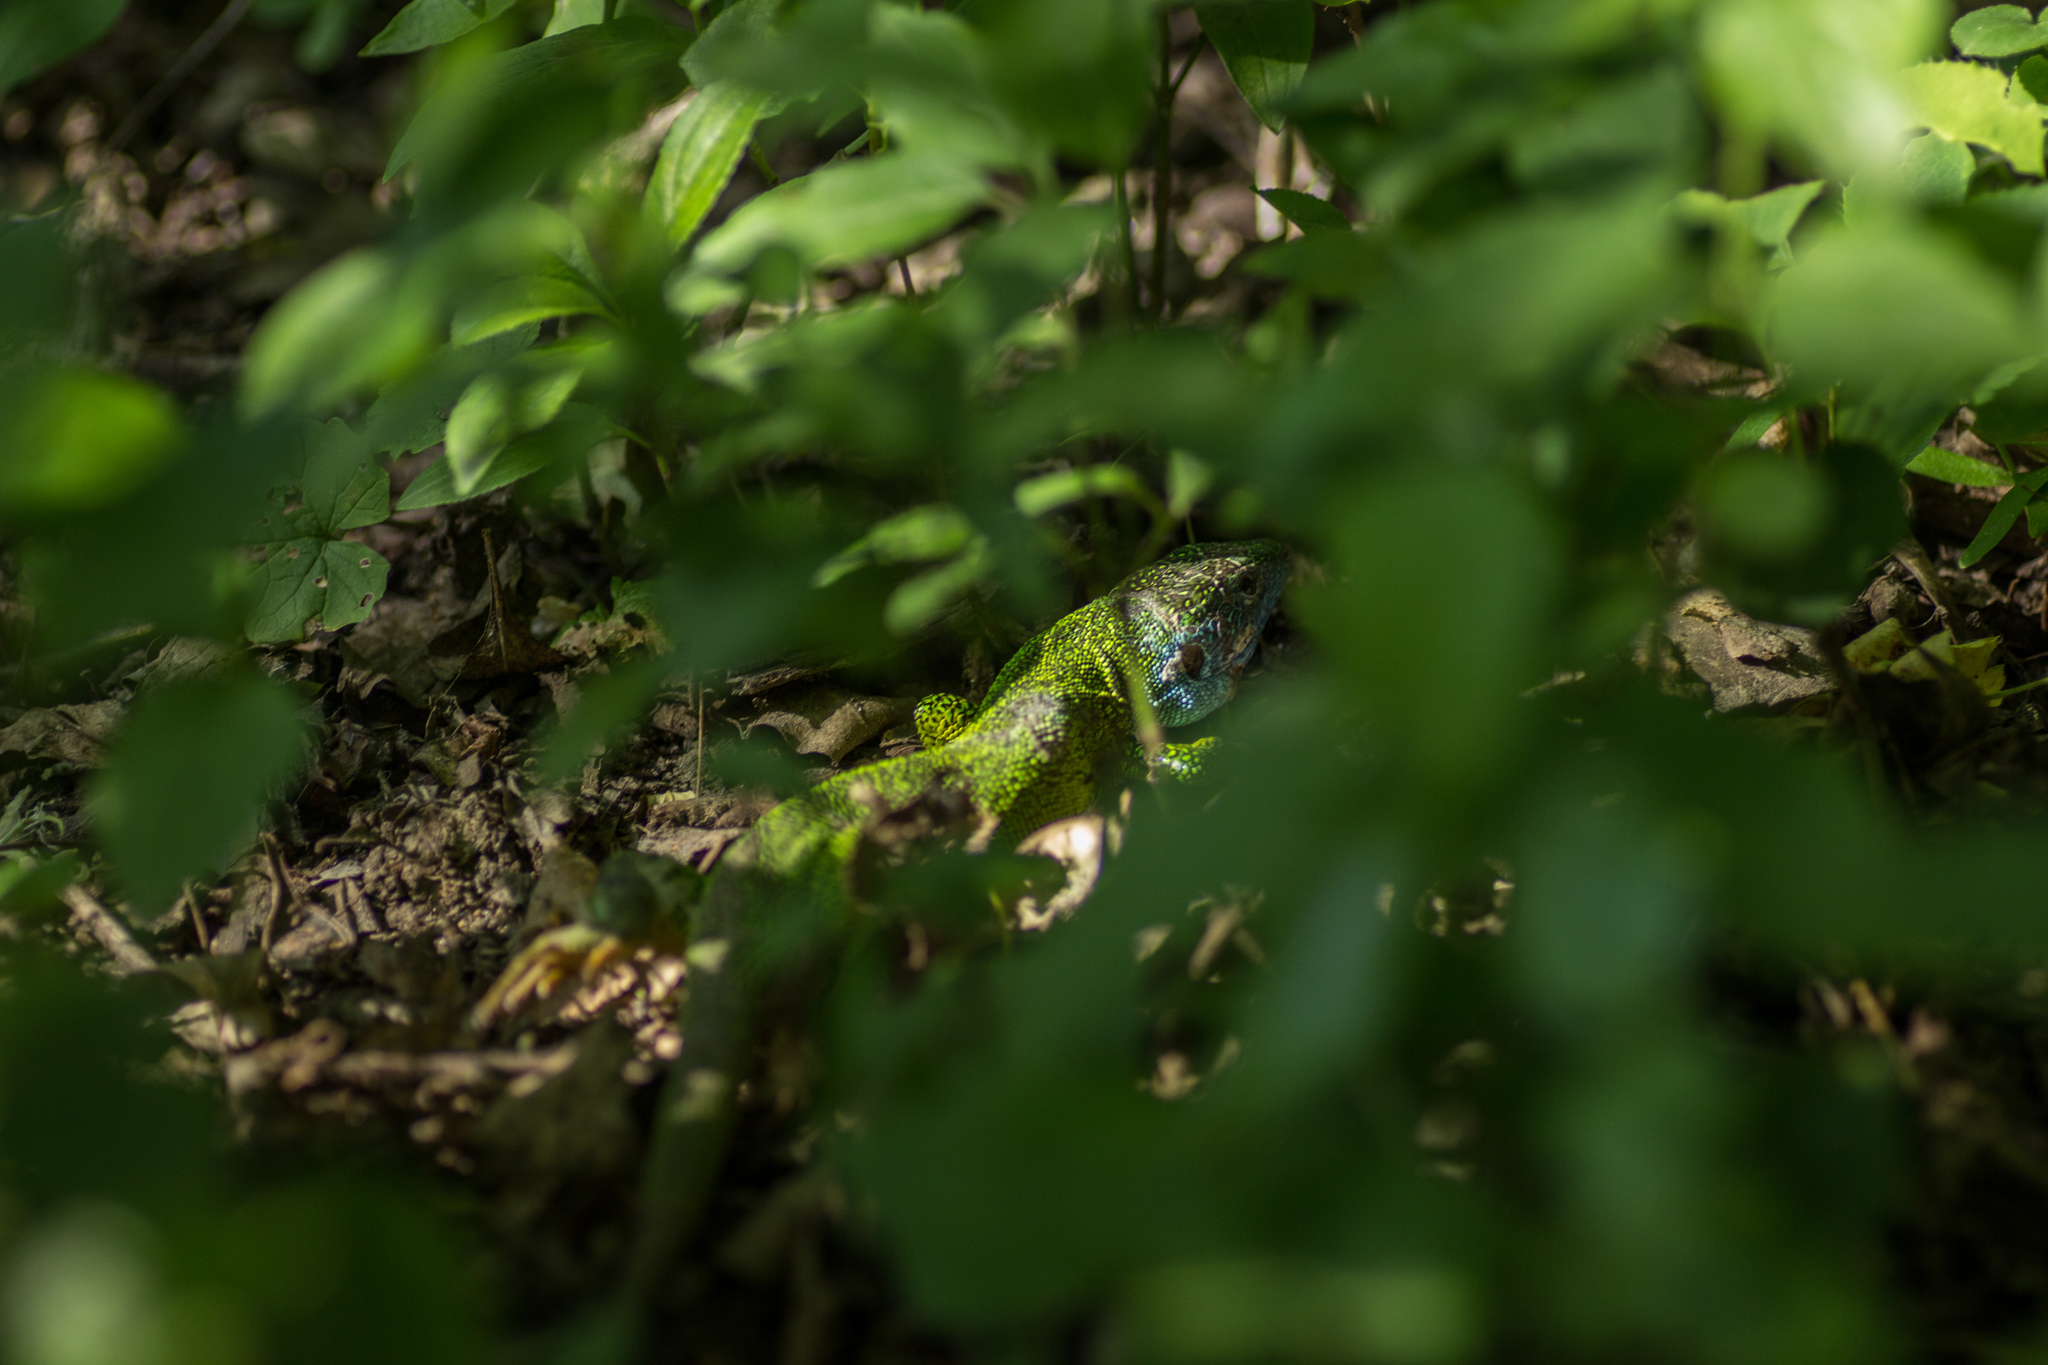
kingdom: Animalia
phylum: Chordata
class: Squamata
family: Lacertidae
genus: Lacerta
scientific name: Lacerta viridis
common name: European green lizard
